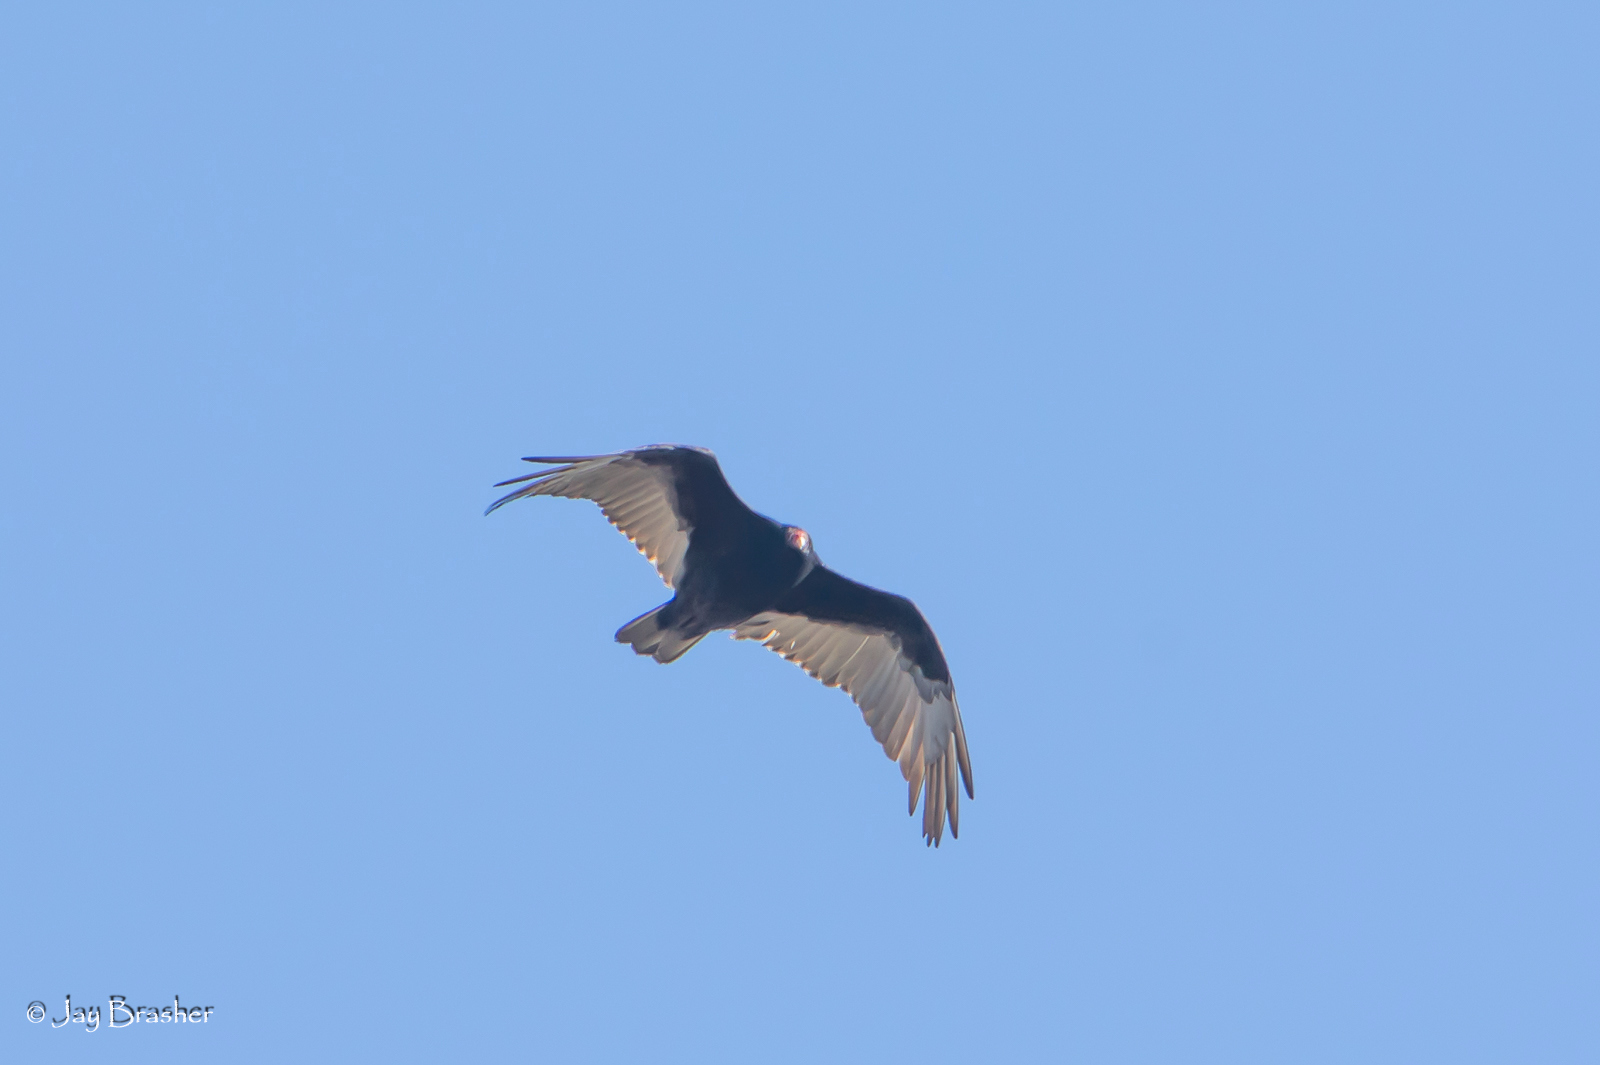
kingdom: Animalia
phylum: Chordata
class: Aves
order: Accipitriformes
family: Cathartidae
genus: Cathartes
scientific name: Cathartes aura
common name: Turkey vulture
